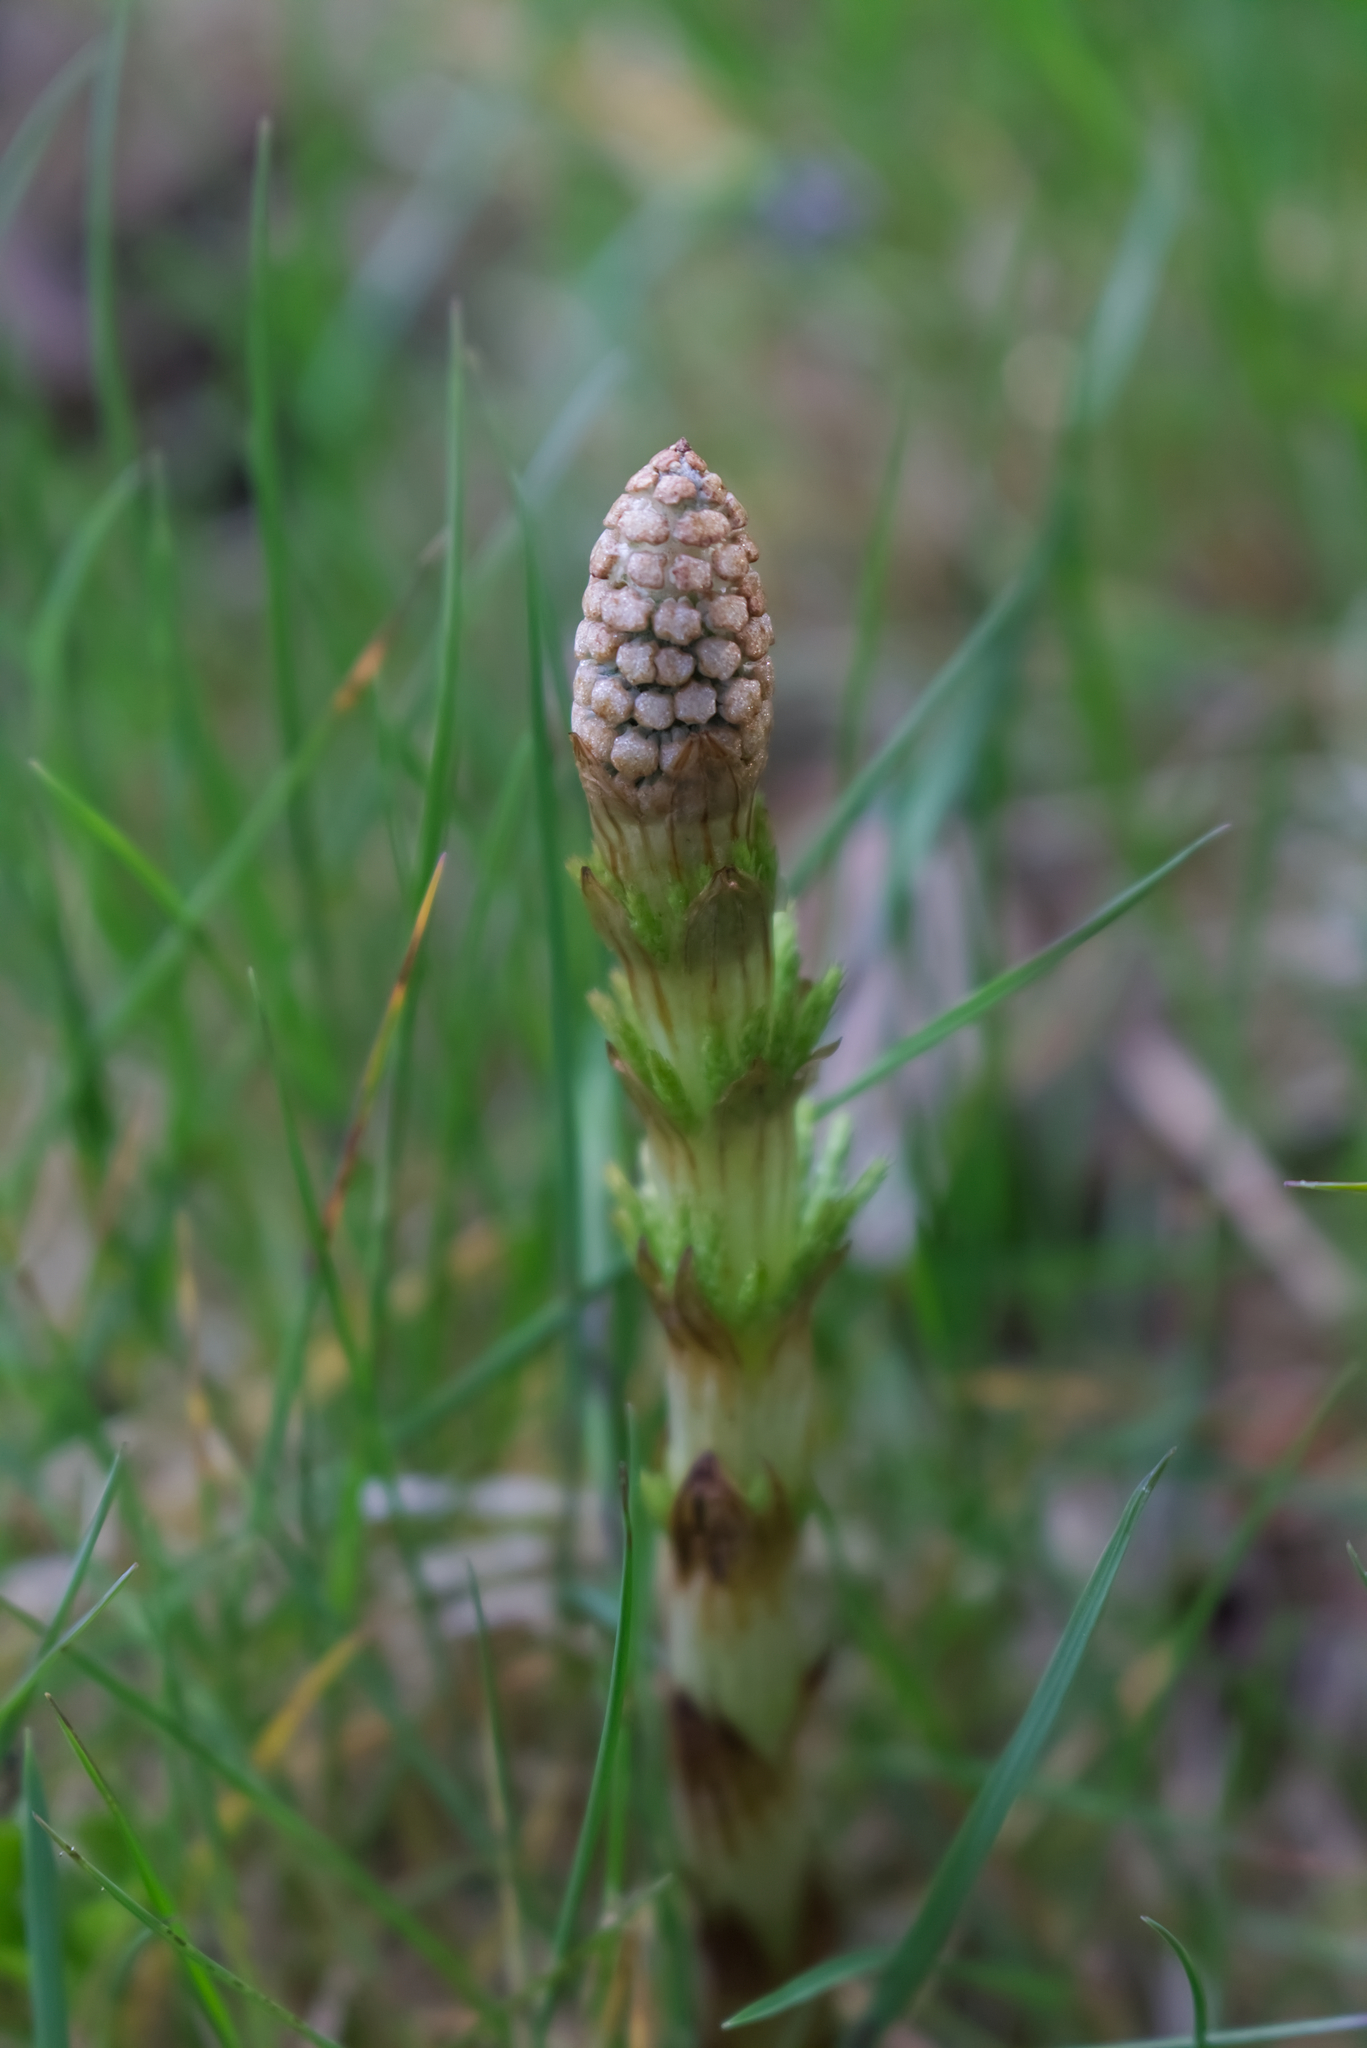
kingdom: Plantae
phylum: Tracheophyta
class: Polypodiopsida
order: Equisetales
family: Equisetaceae
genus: Equisetum
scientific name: Equisetum sylvaticum
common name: Wood horsetail
